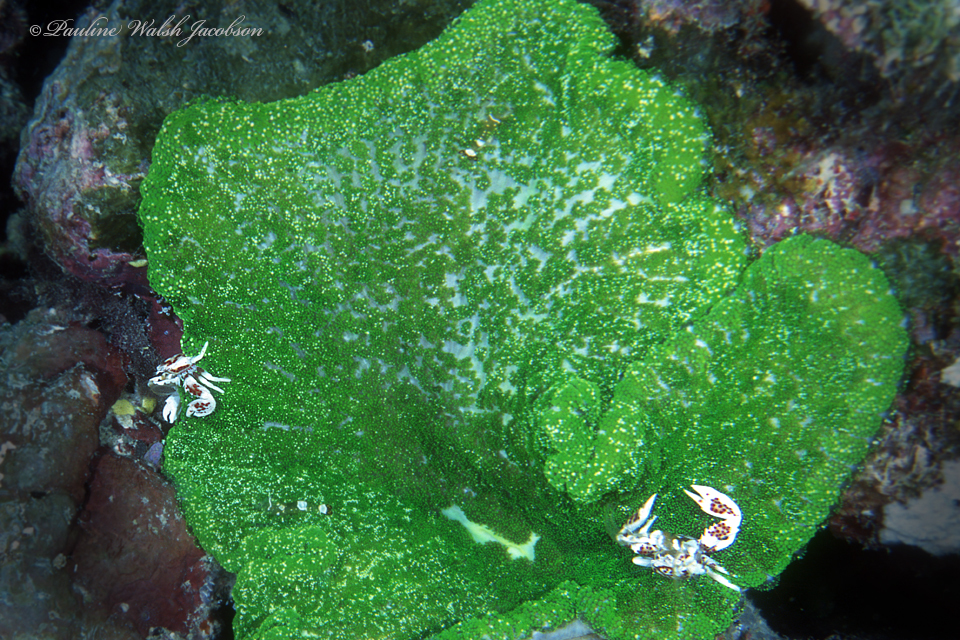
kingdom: Animalia
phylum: Cnidaria
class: Anthozoa
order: Actiniaria
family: Thalassianthidae
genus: Cryptodendrum
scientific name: Cryptodendrum adhaesivum
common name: Adhesive sea anemone
